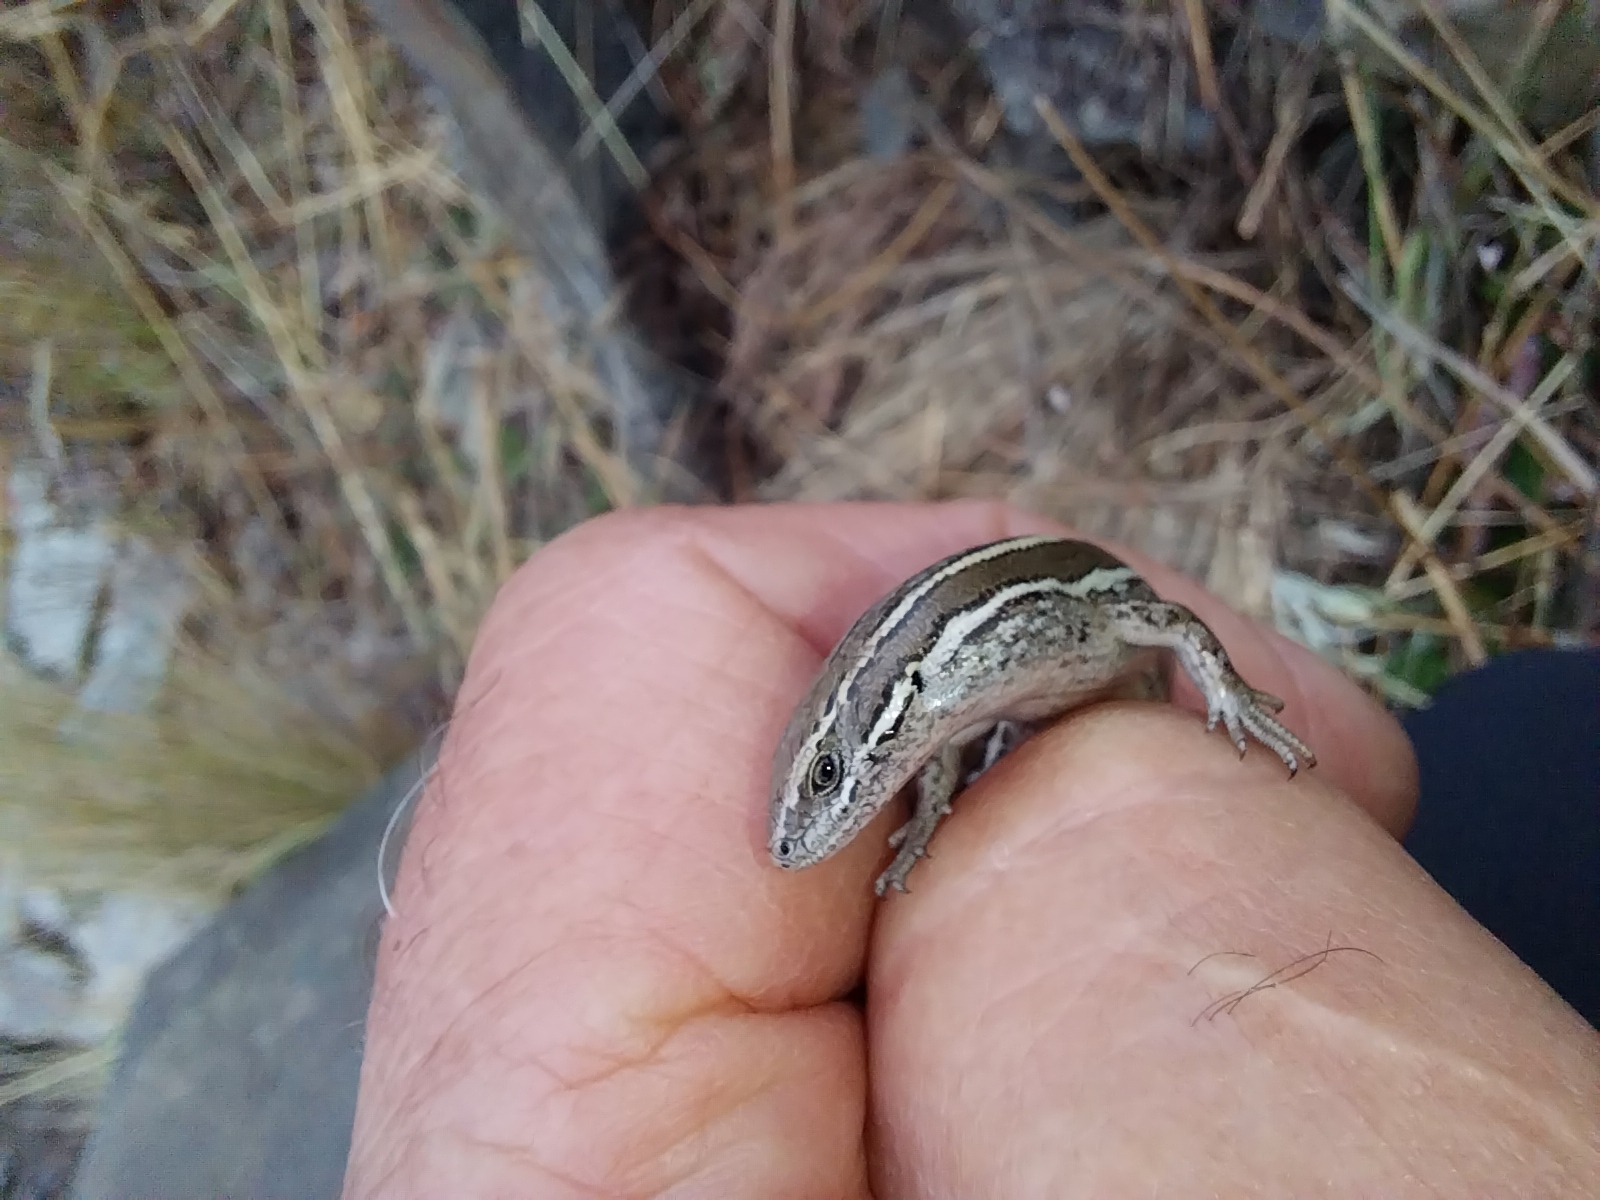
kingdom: Animalia
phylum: Chordata
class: Squamata
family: Scincidae
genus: Oligosoma
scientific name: Oligosoma maccanni
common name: Mccann’s skink
